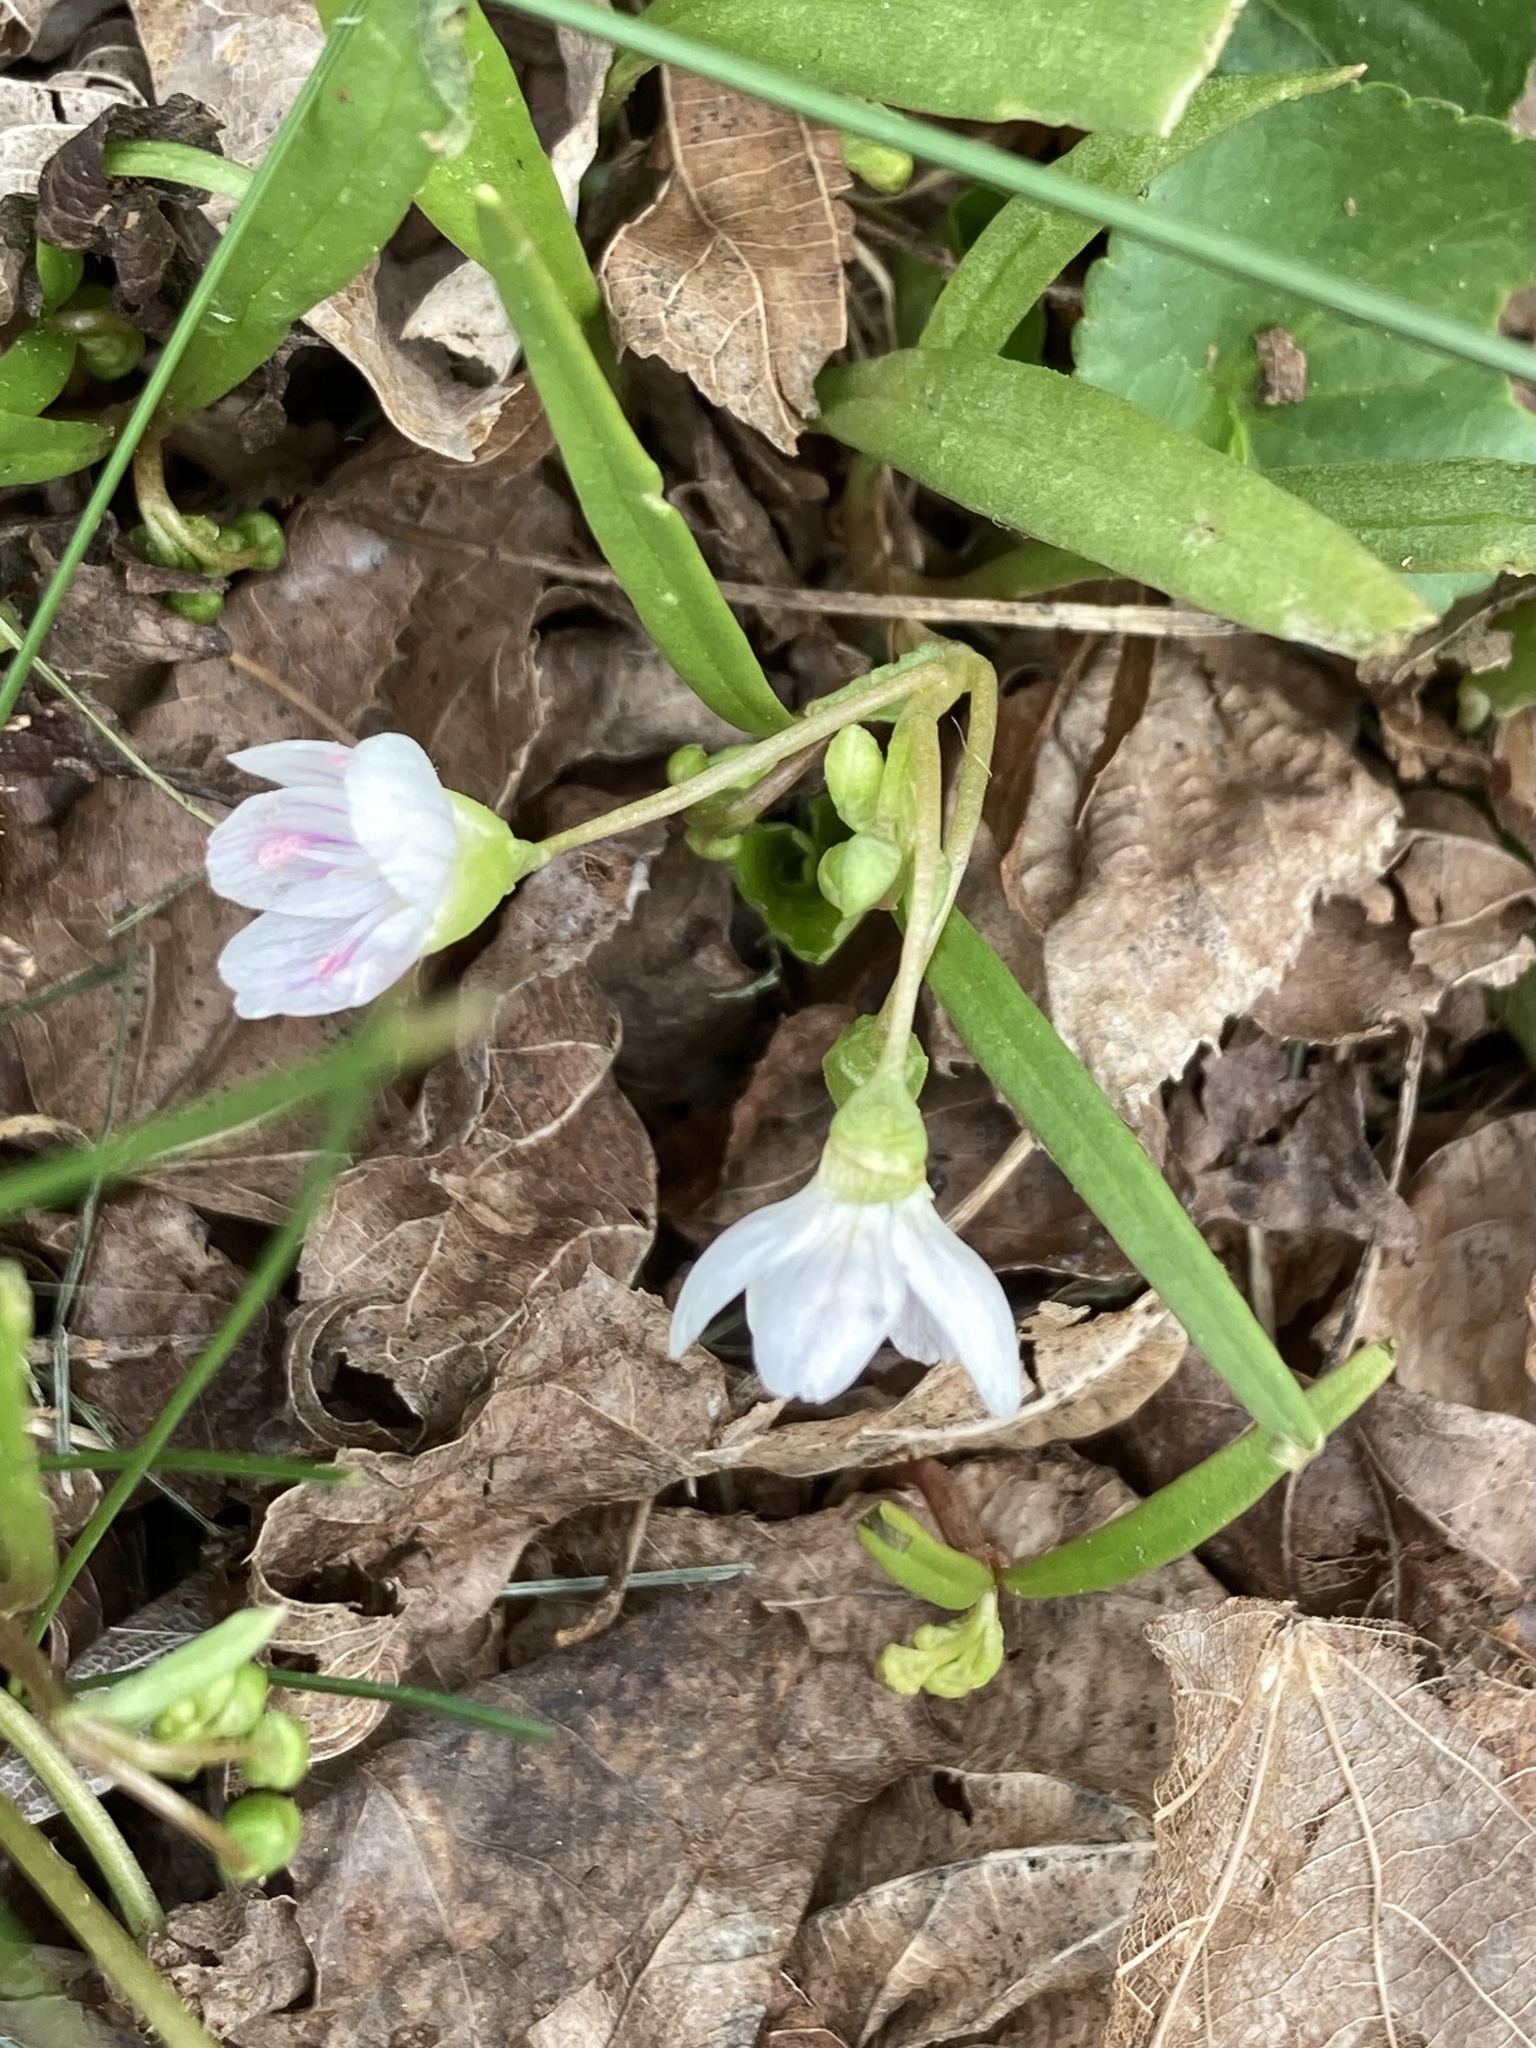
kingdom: Plantae
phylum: Tracheophyta
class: Magnoliopsida
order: Caryophyllales
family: Montiaceae
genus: Claytonia
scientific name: Claytonia virginica
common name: Virginia springbeauty
